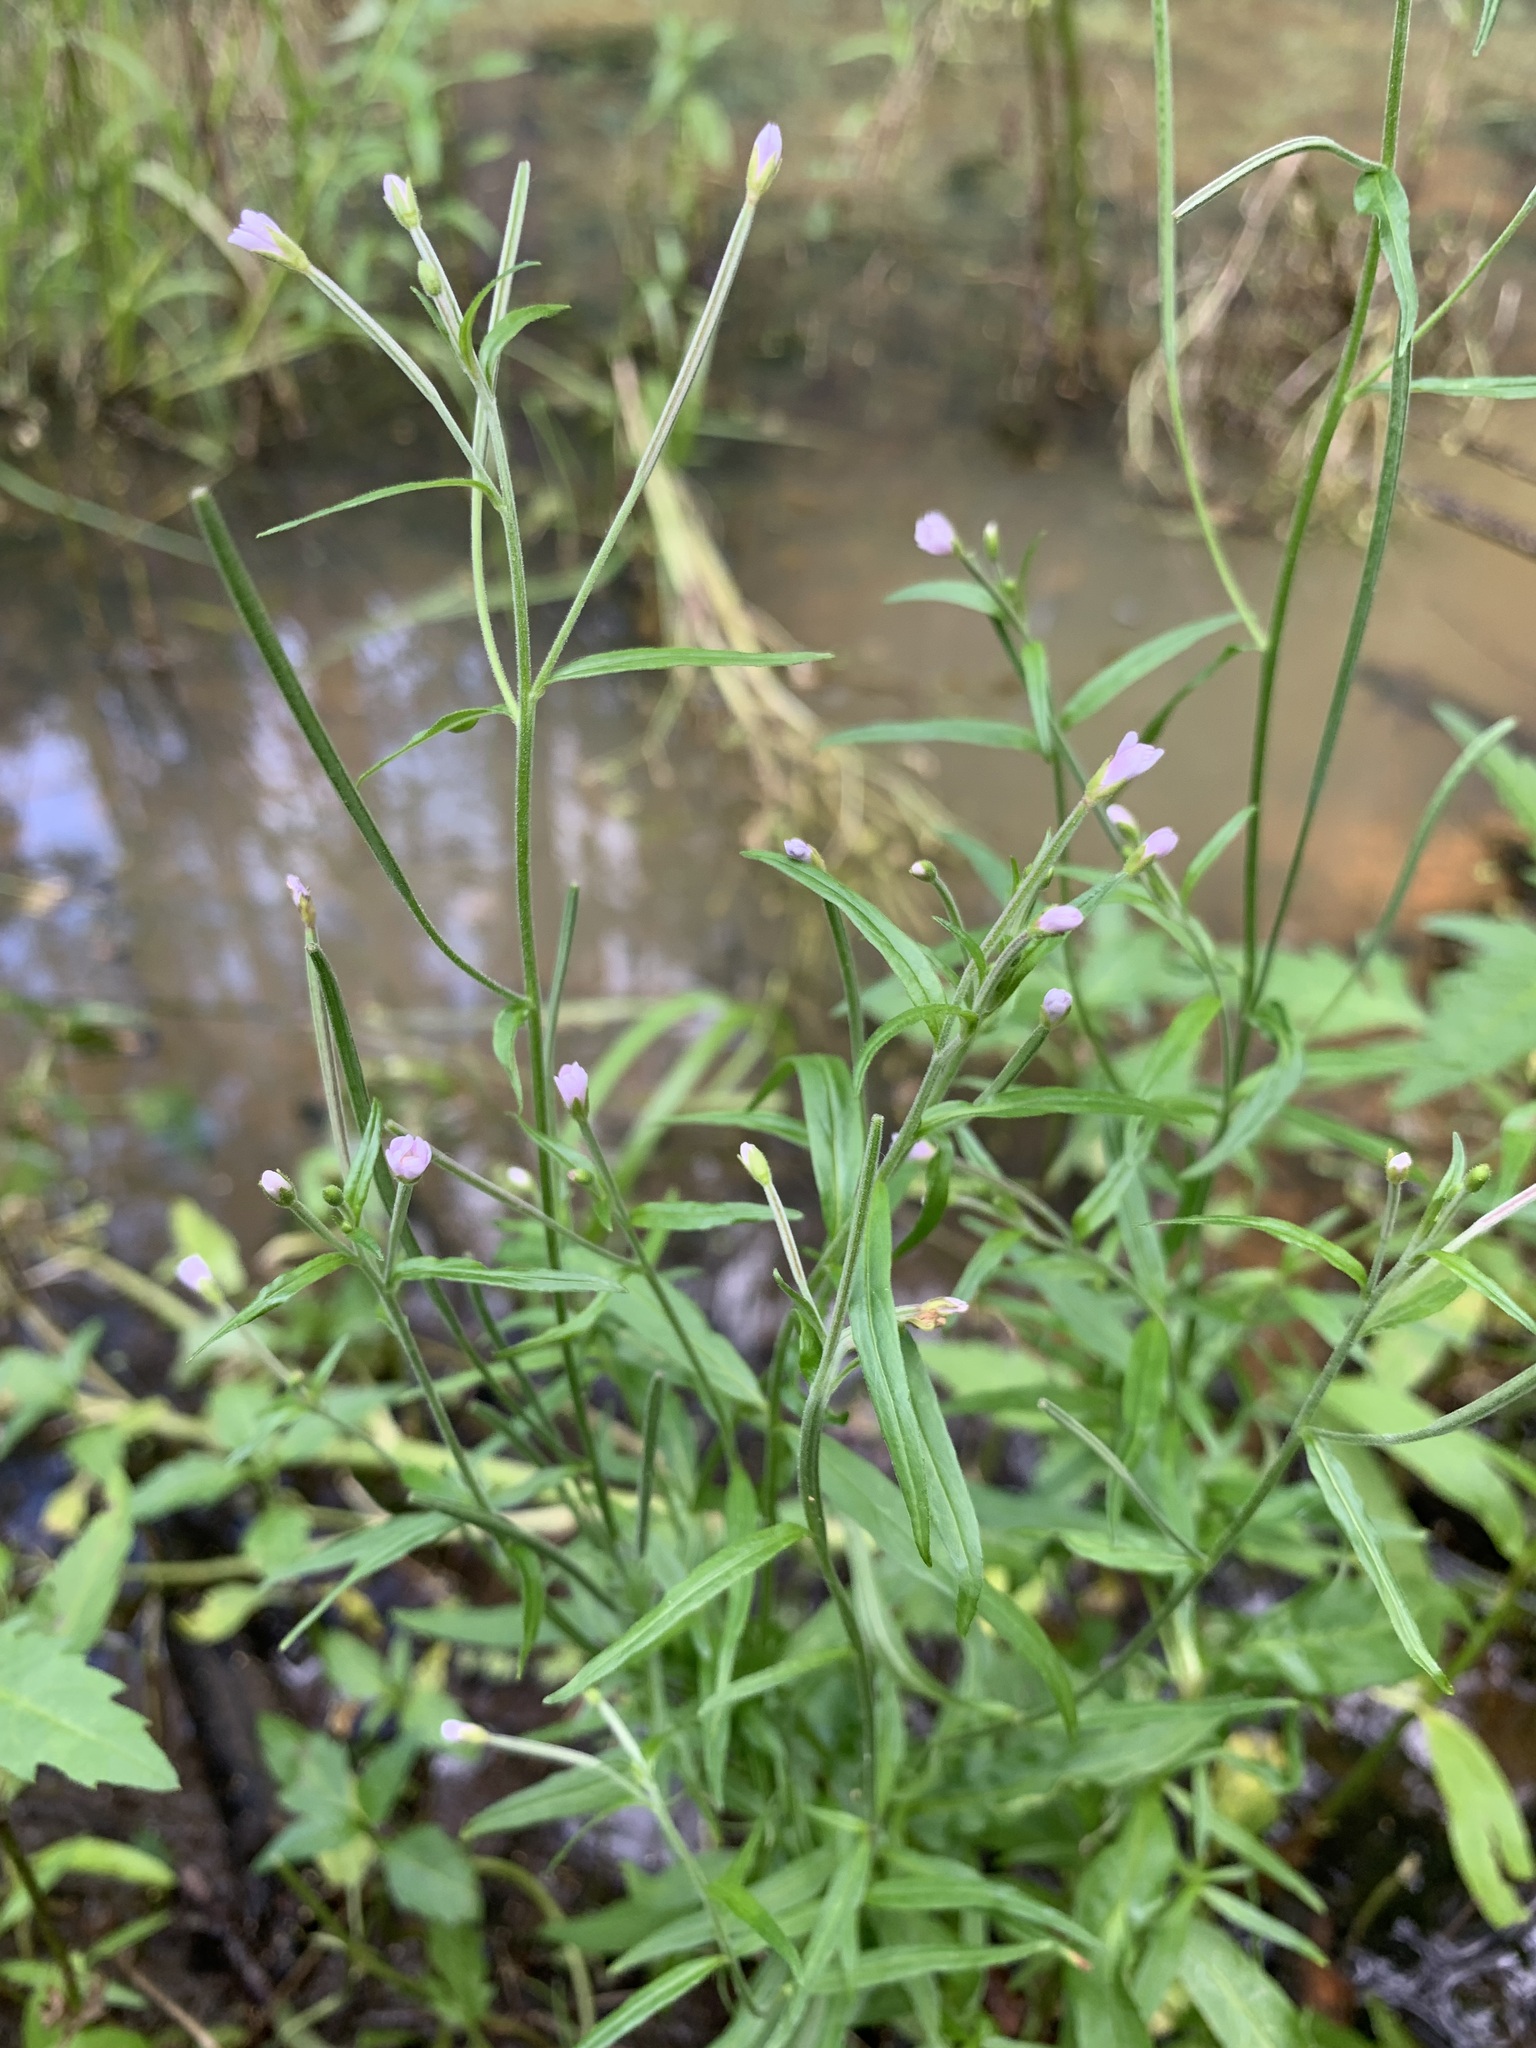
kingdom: Plantae
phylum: Tracheophyta
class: Magnoliopsida
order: Myrtales
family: Onagraceae
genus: Epilobium
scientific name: Epilobium palustre
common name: Marsh willowherb
